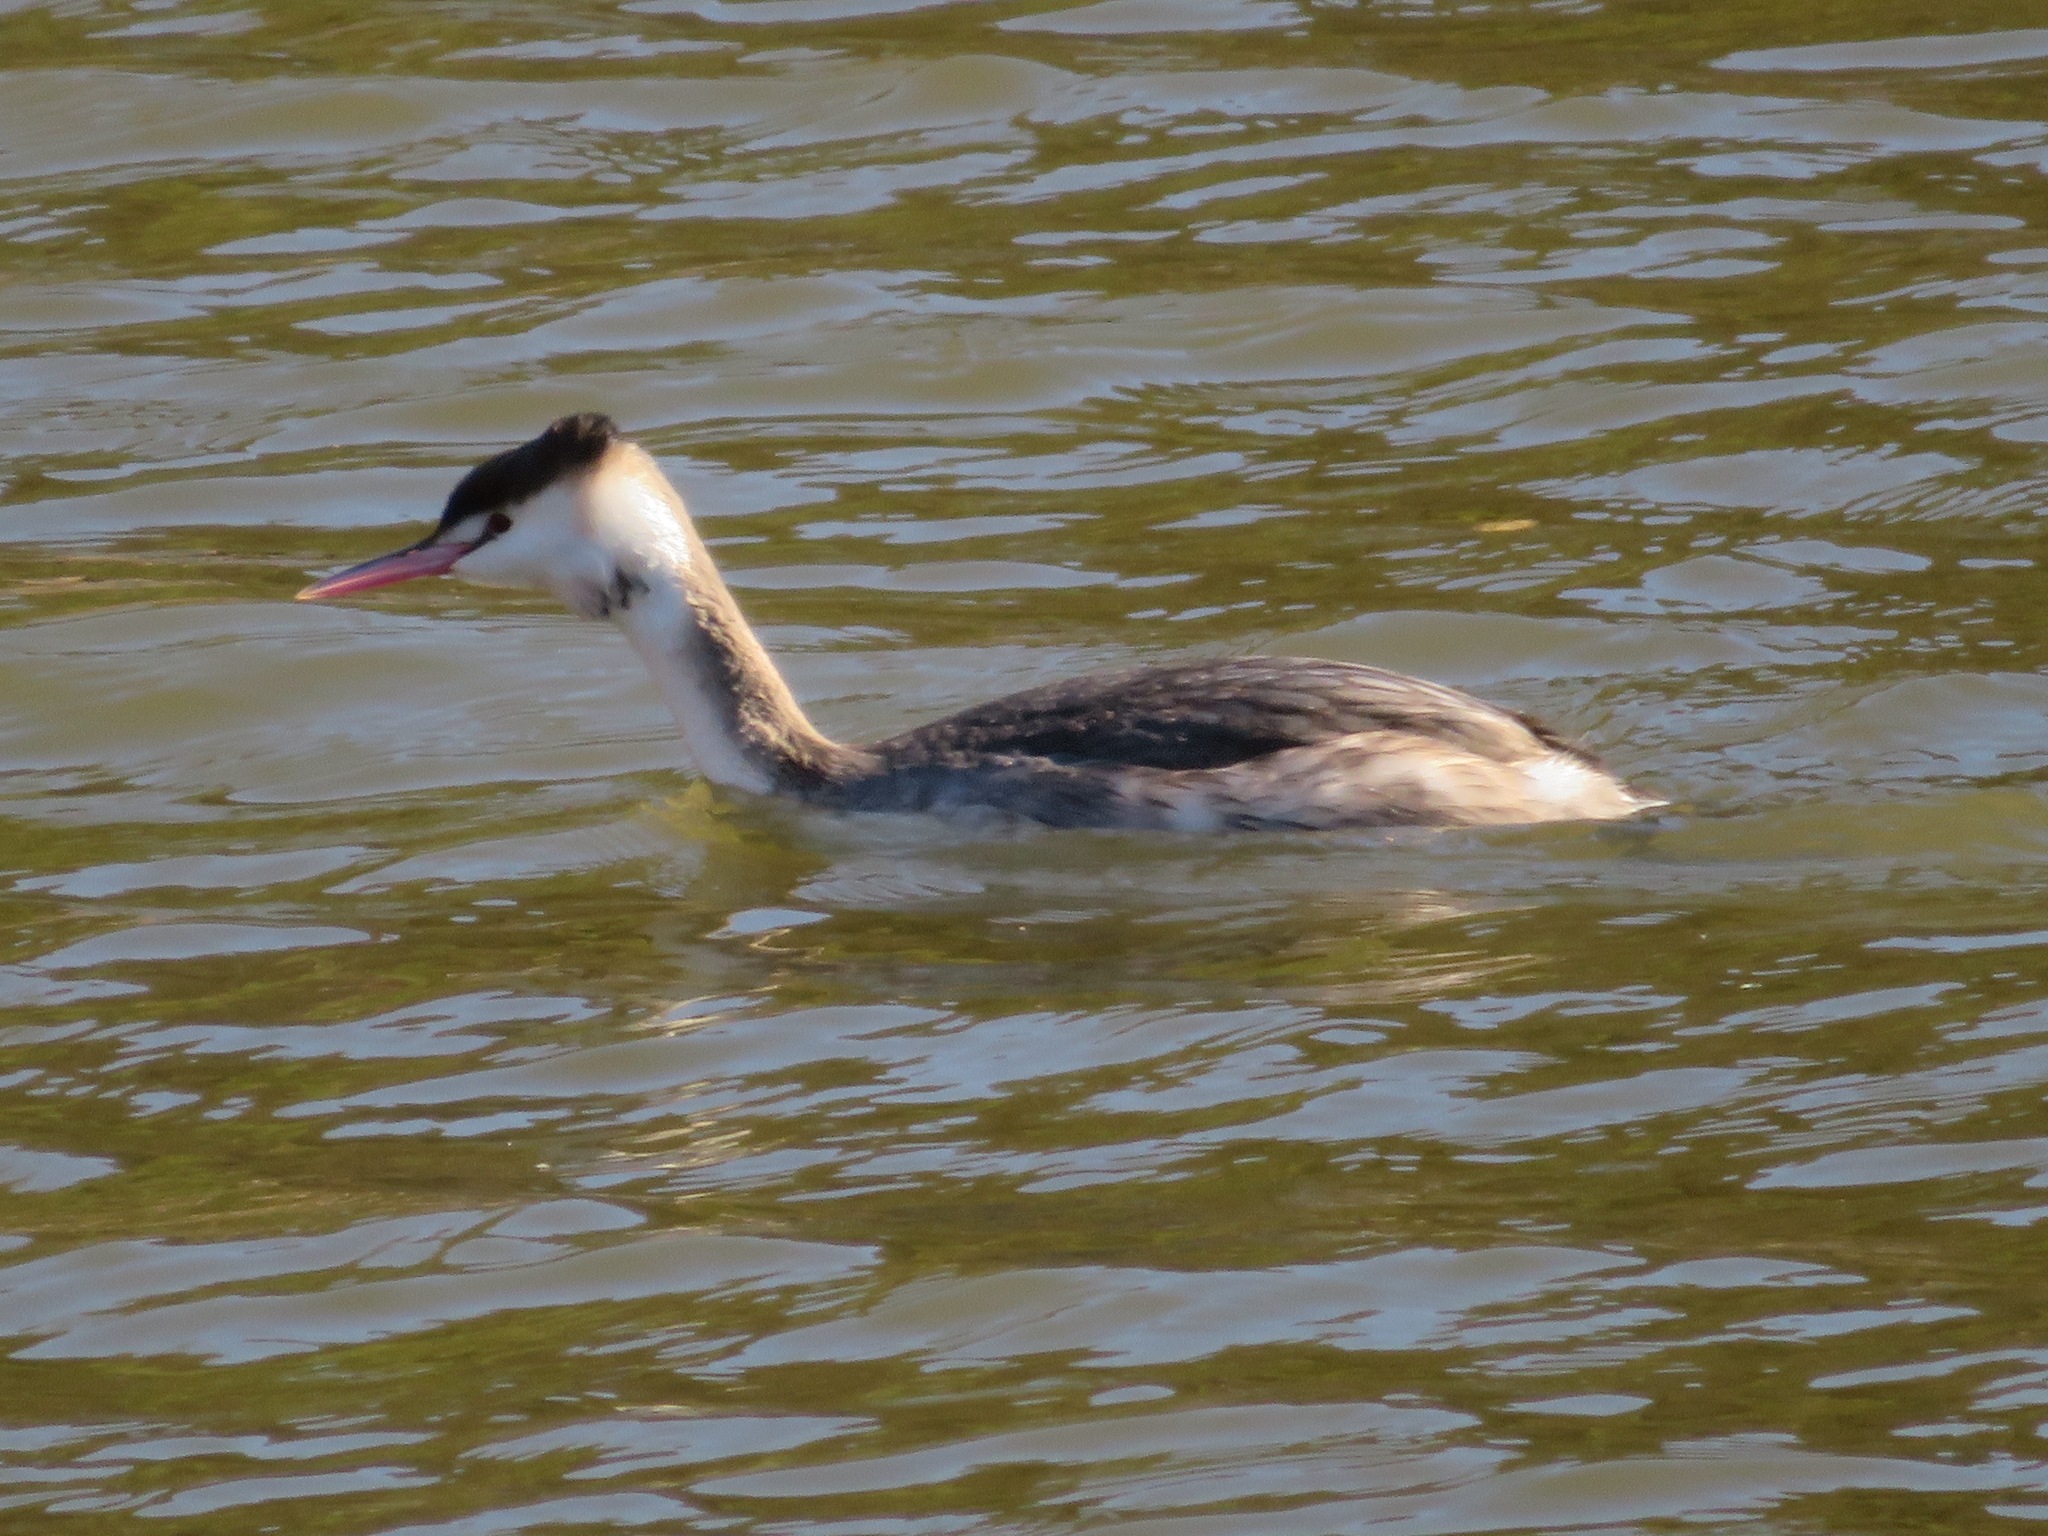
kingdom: Animalia
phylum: Chordata
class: Aves
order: Podicipediformes
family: Podicipedidae
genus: Podiceps
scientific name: Podiceps cristatus
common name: Great crested grebe
